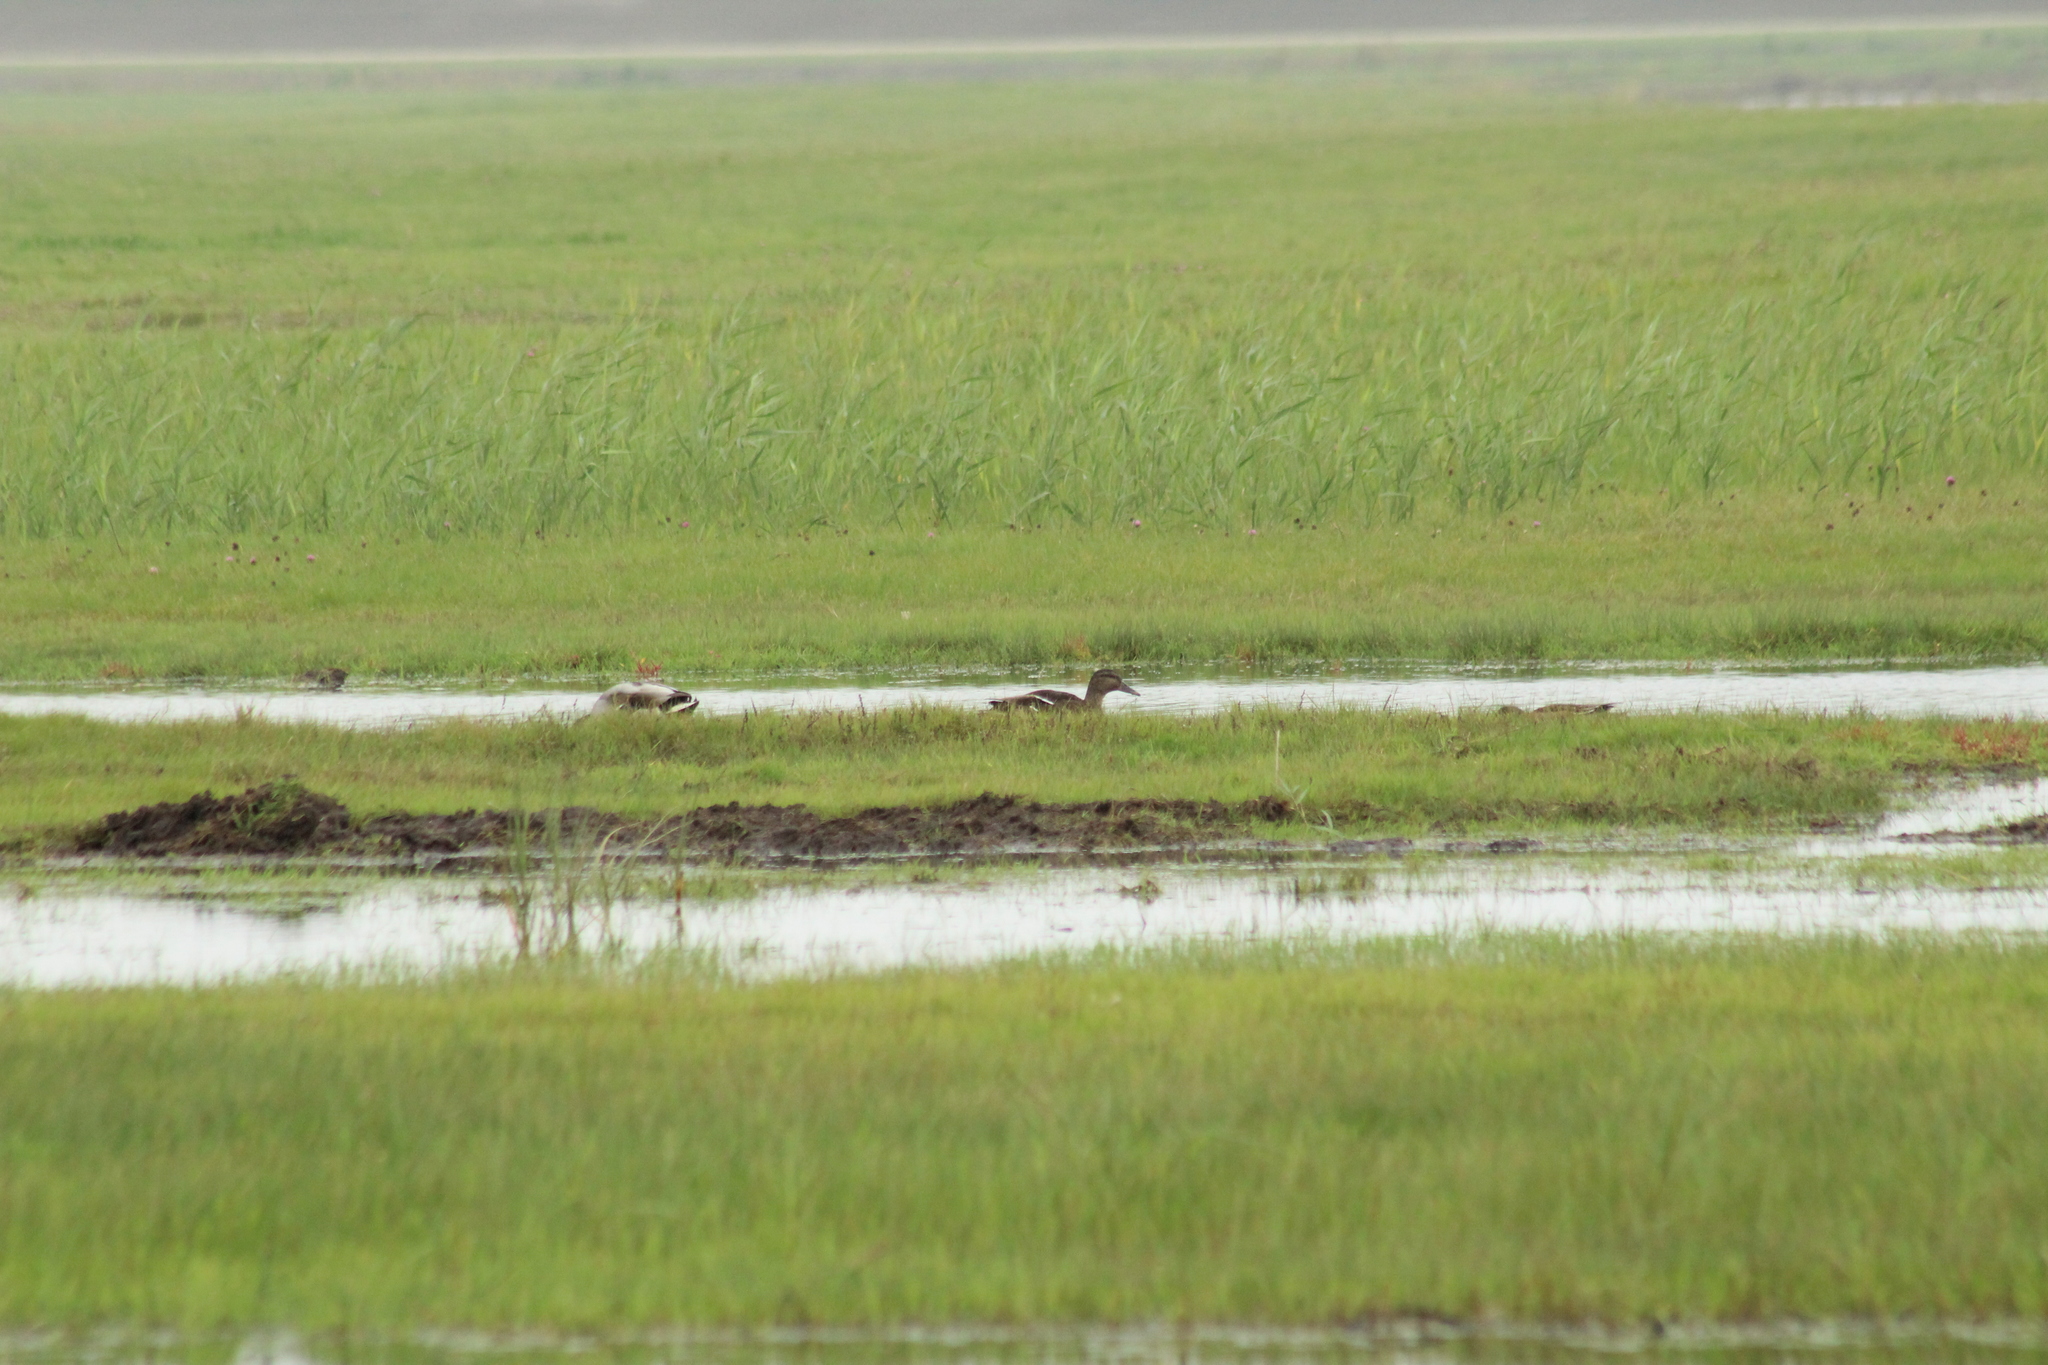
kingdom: Animalia
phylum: Chordata
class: Aves
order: Anseriformes
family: Anatidae
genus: Anas
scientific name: Anas platyrhynchos
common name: Mallard
